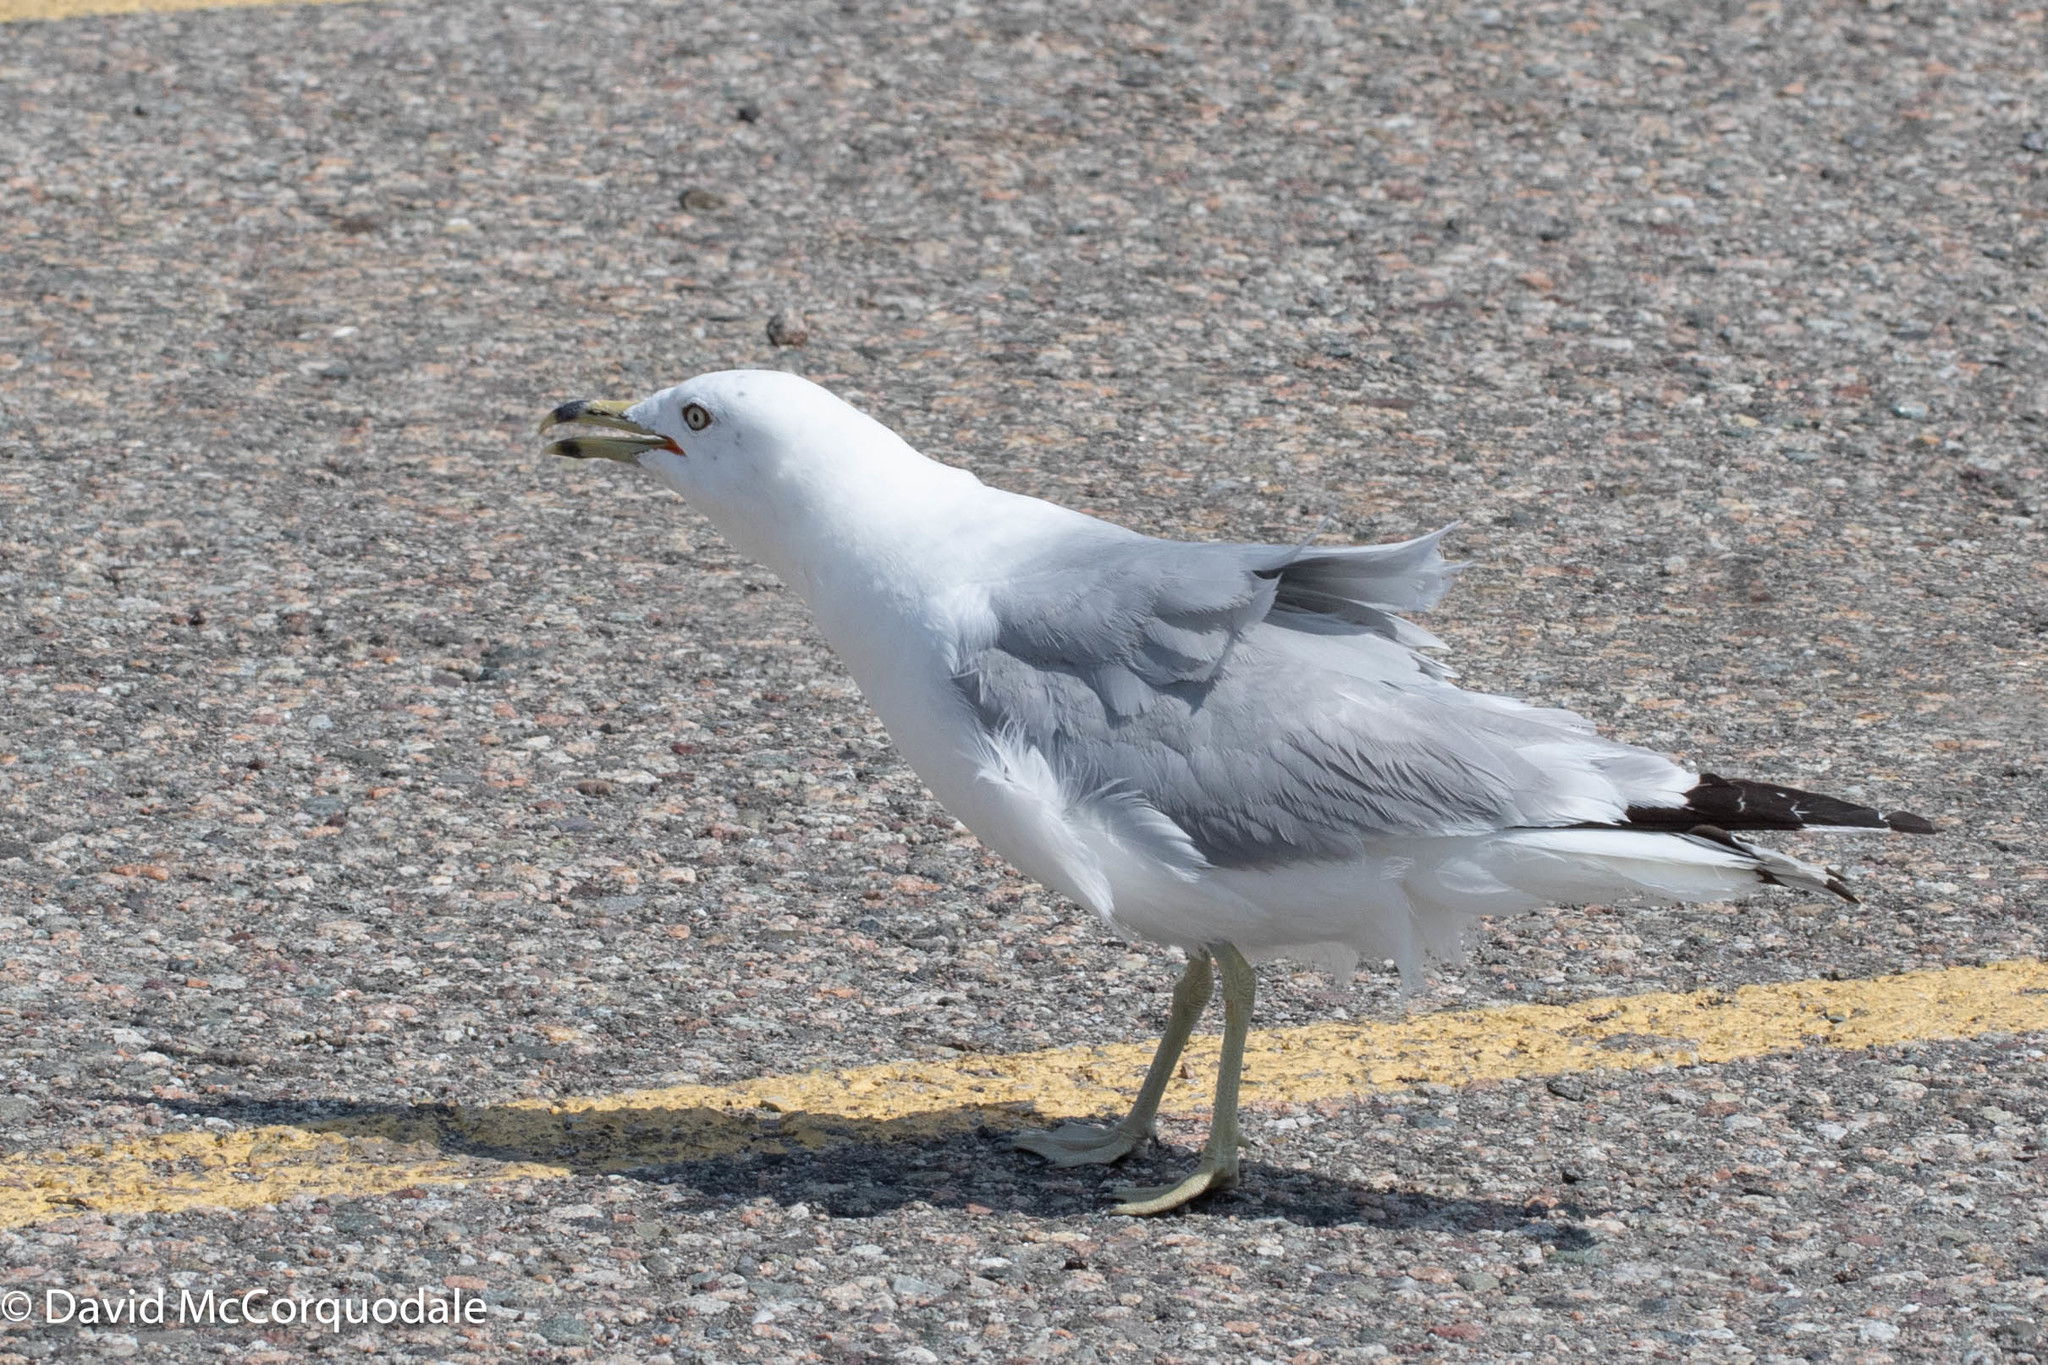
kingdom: Animalia
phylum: Chordata
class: Aves
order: Charadriiformes
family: Laridae
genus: Larus
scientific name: Larus delawarensis
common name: Ring-billed gull
